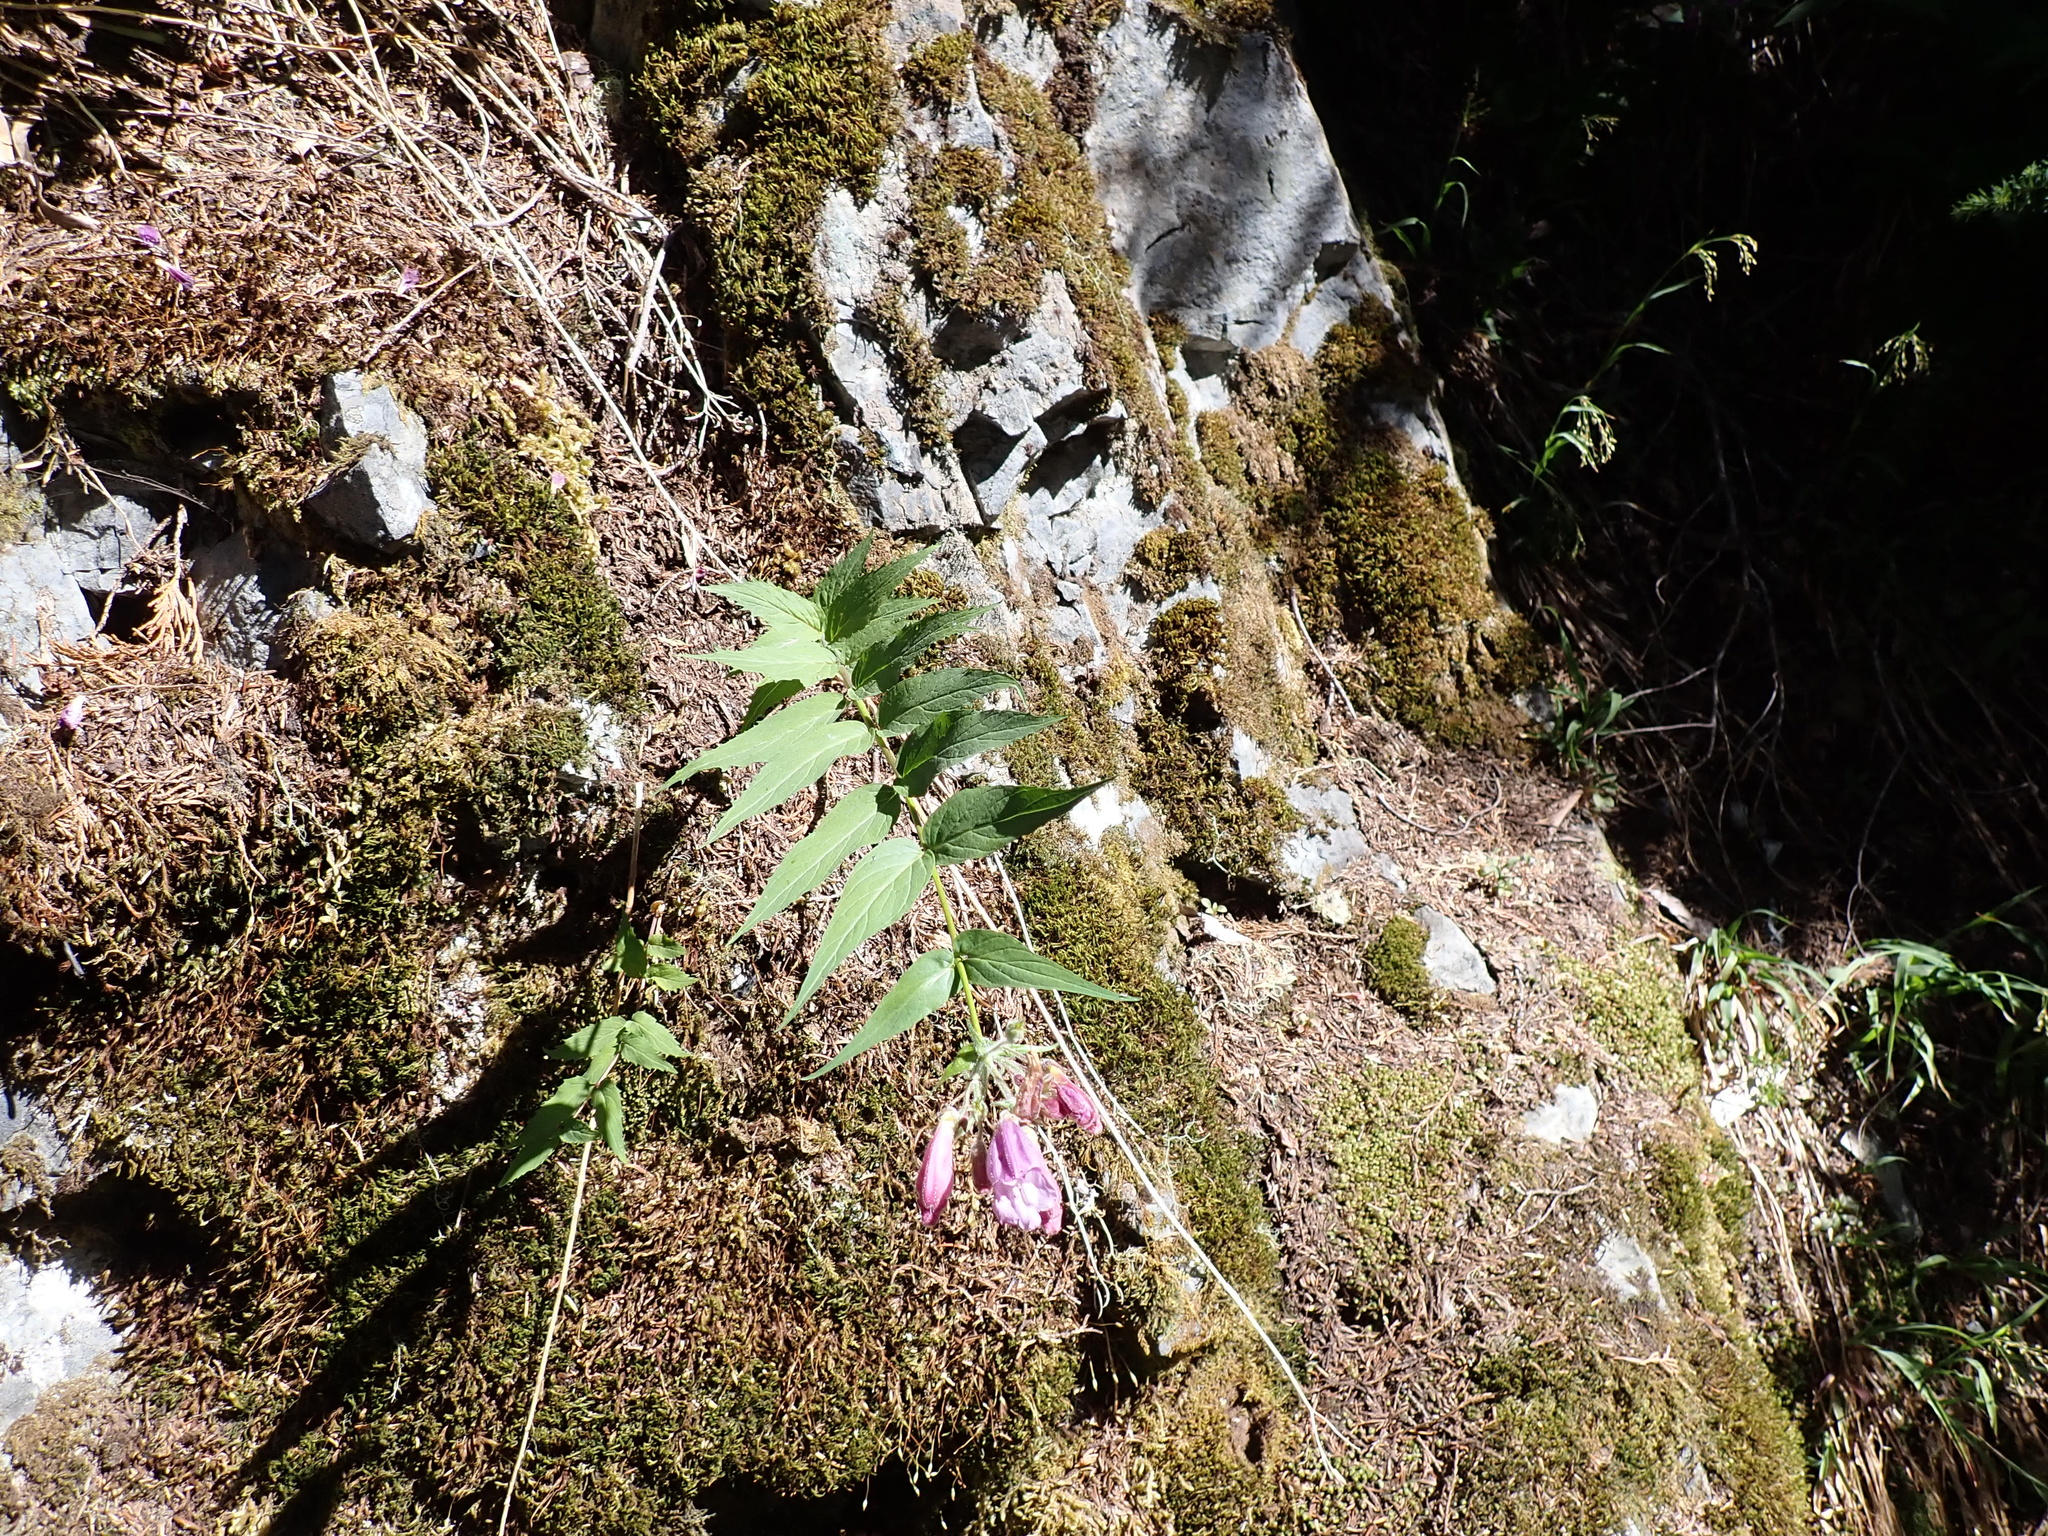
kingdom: Plantae
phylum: Tracheophyta
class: Magnoliopsida
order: Lamiales
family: Plantaginaceae
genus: Nothochelone
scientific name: Nothochelone nemorosa
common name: Woodland beardtongue
